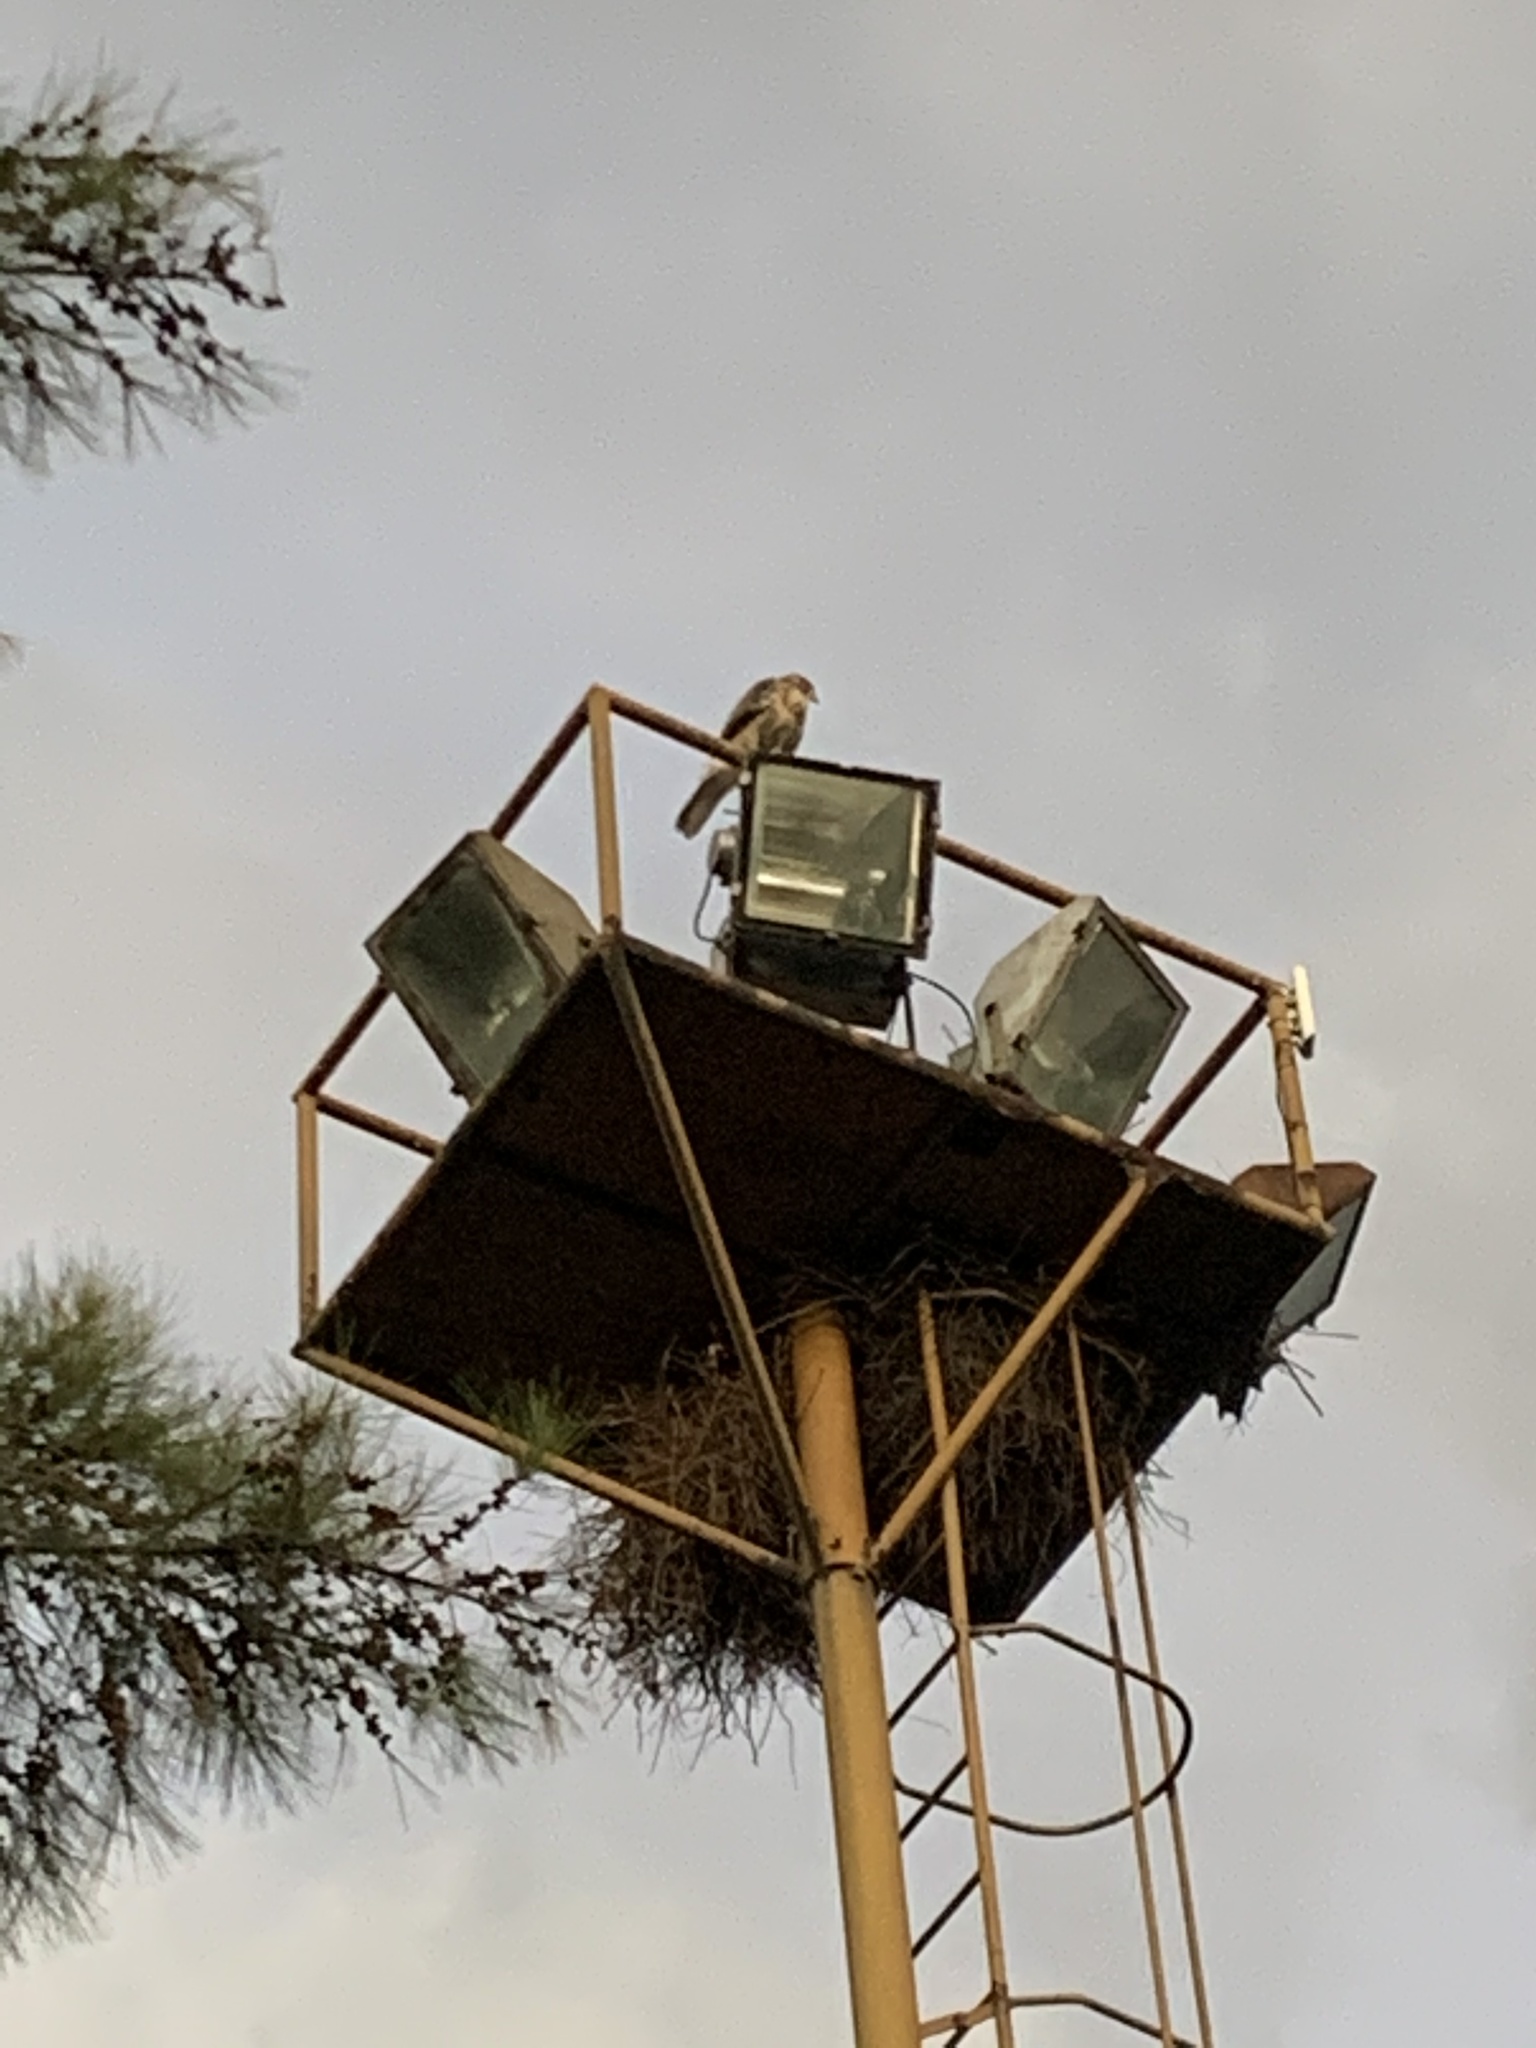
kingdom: Animalia
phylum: Chordata
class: Aves
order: Accipitriformes
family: Accipitridae
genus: Parabuteo
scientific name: Parabuteo unicinctus
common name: Harris's hawk
